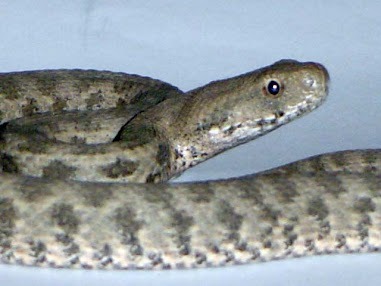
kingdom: Animalia
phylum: Chordata
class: Squamata
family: Viperidae
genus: Macrovipera
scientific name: Macrovipera lebetinus
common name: Levantine viper
